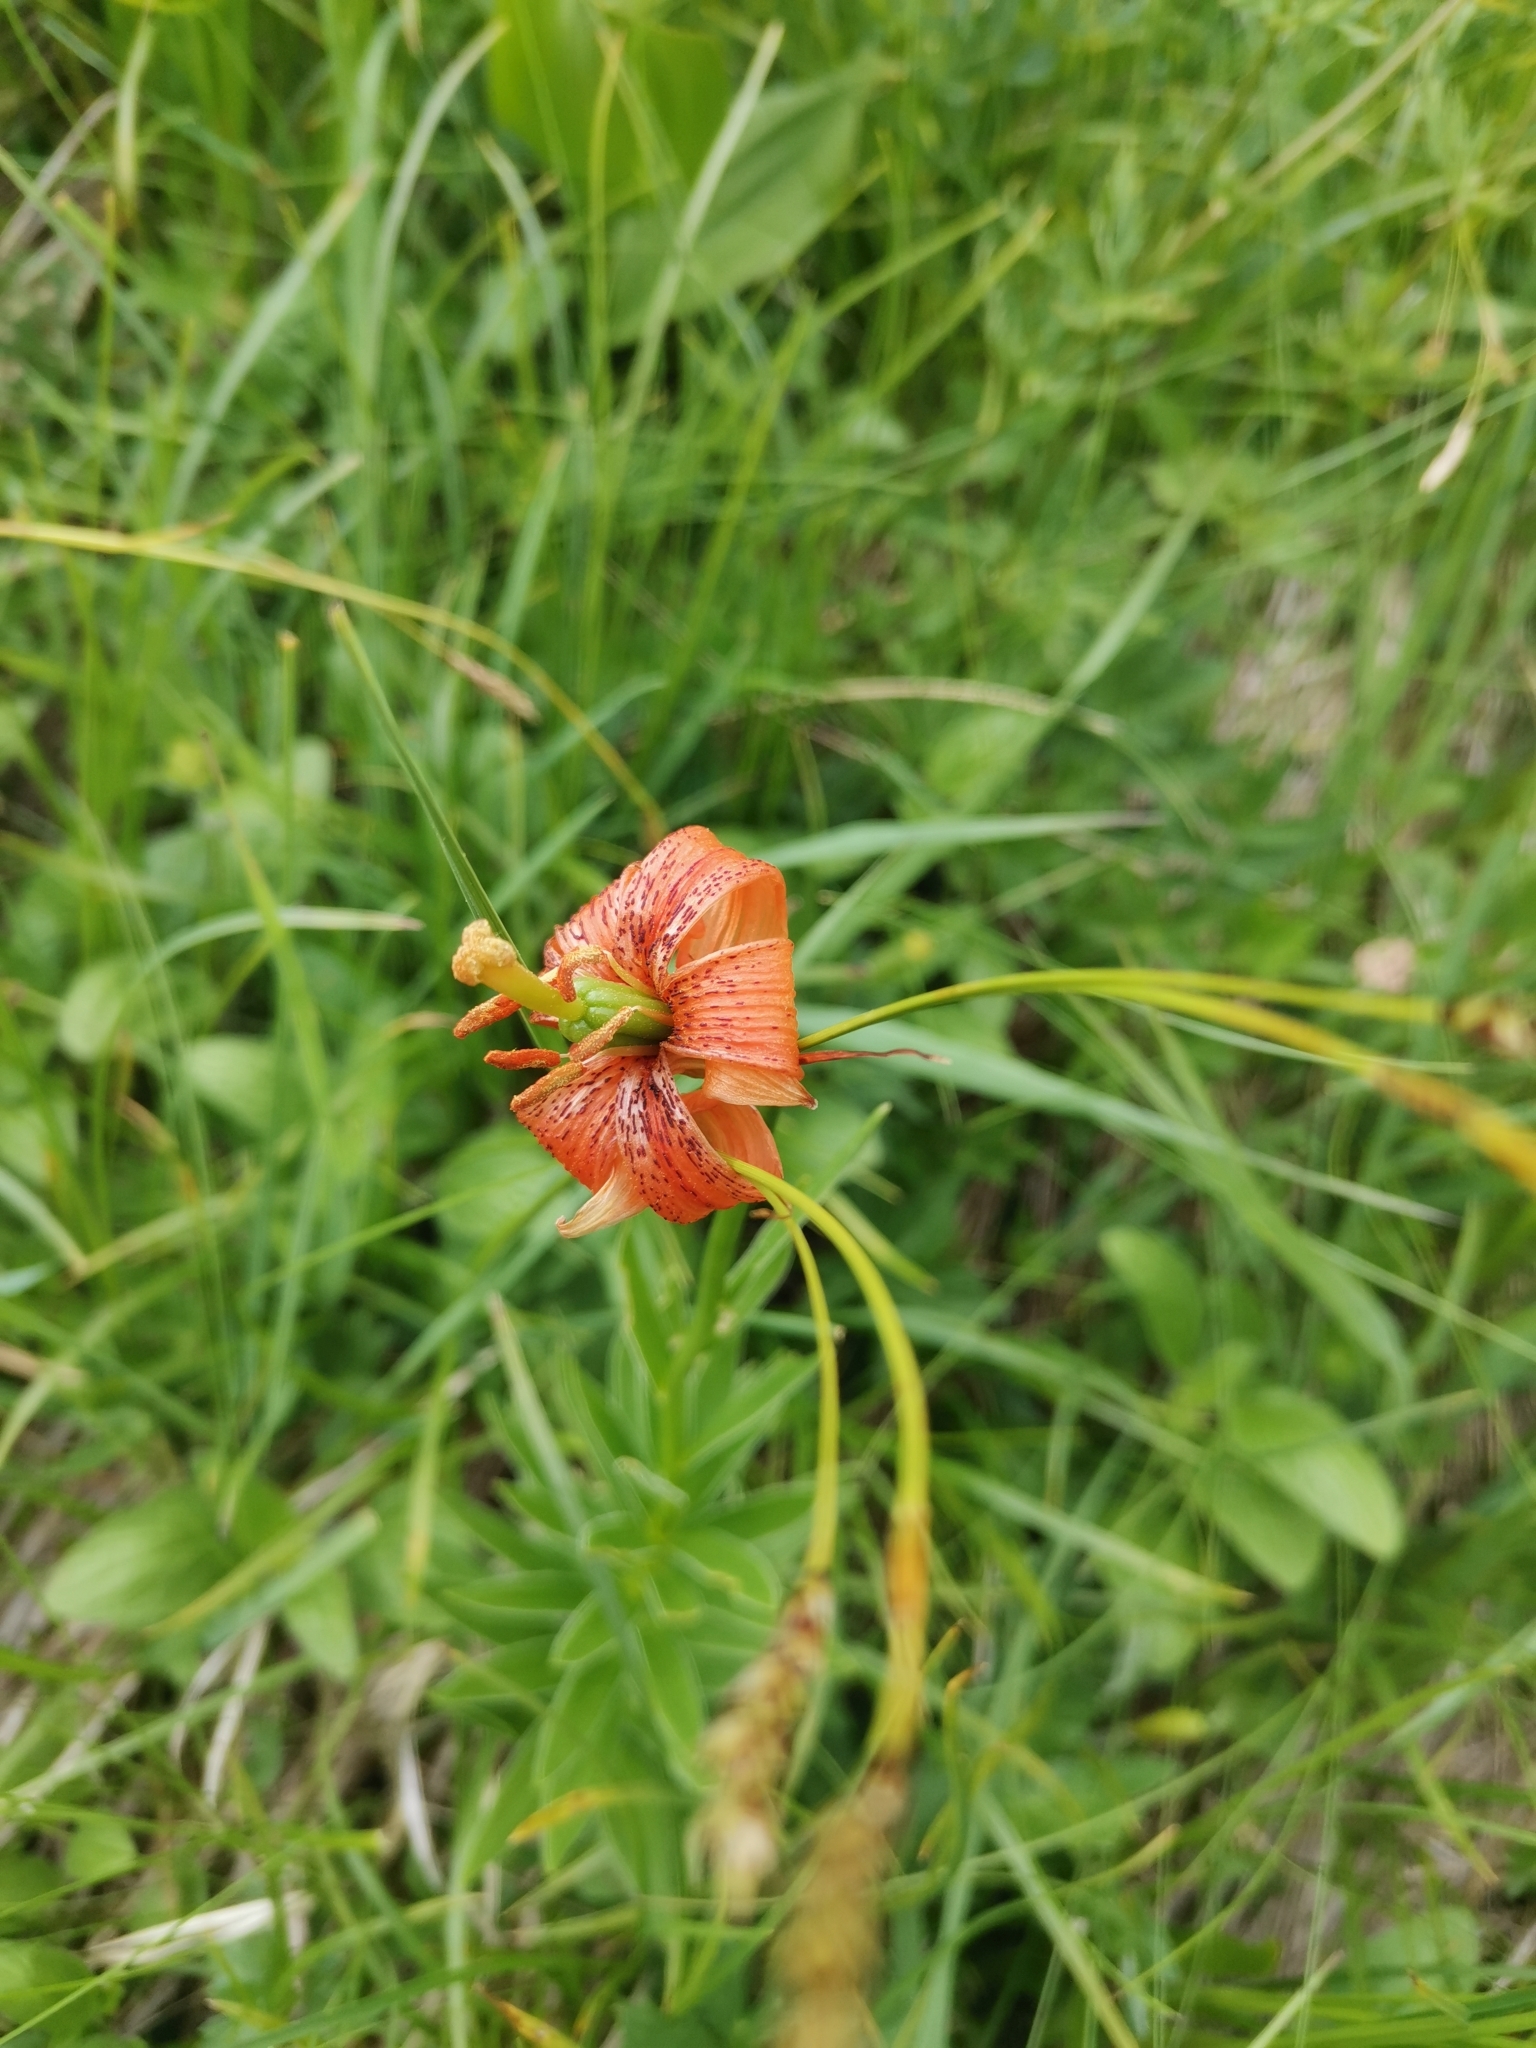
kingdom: Plantae
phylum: Tracheophyta
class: Liliopsida
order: Liliales
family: Liliaceae
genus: Lilium
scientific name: Lilium carniolicum
